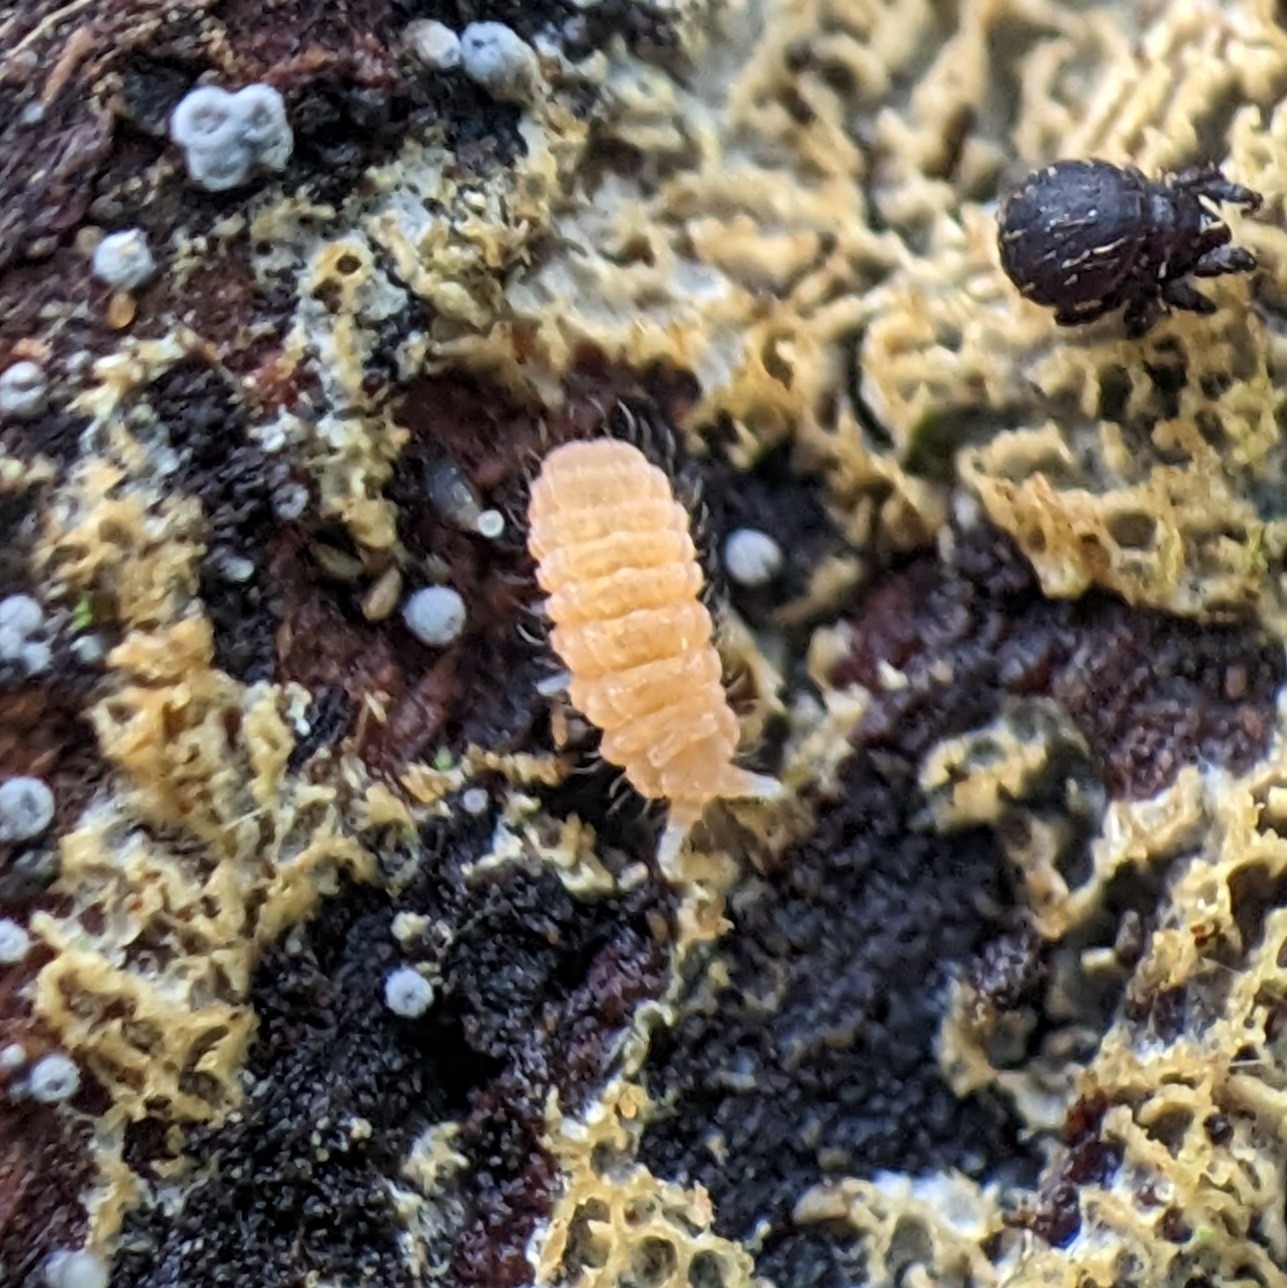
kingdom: Animalia
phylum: Arthropoda
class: Collembola
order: Poduromorpha
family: Neanuridae
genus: Monobella
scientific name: Monobella grassei
